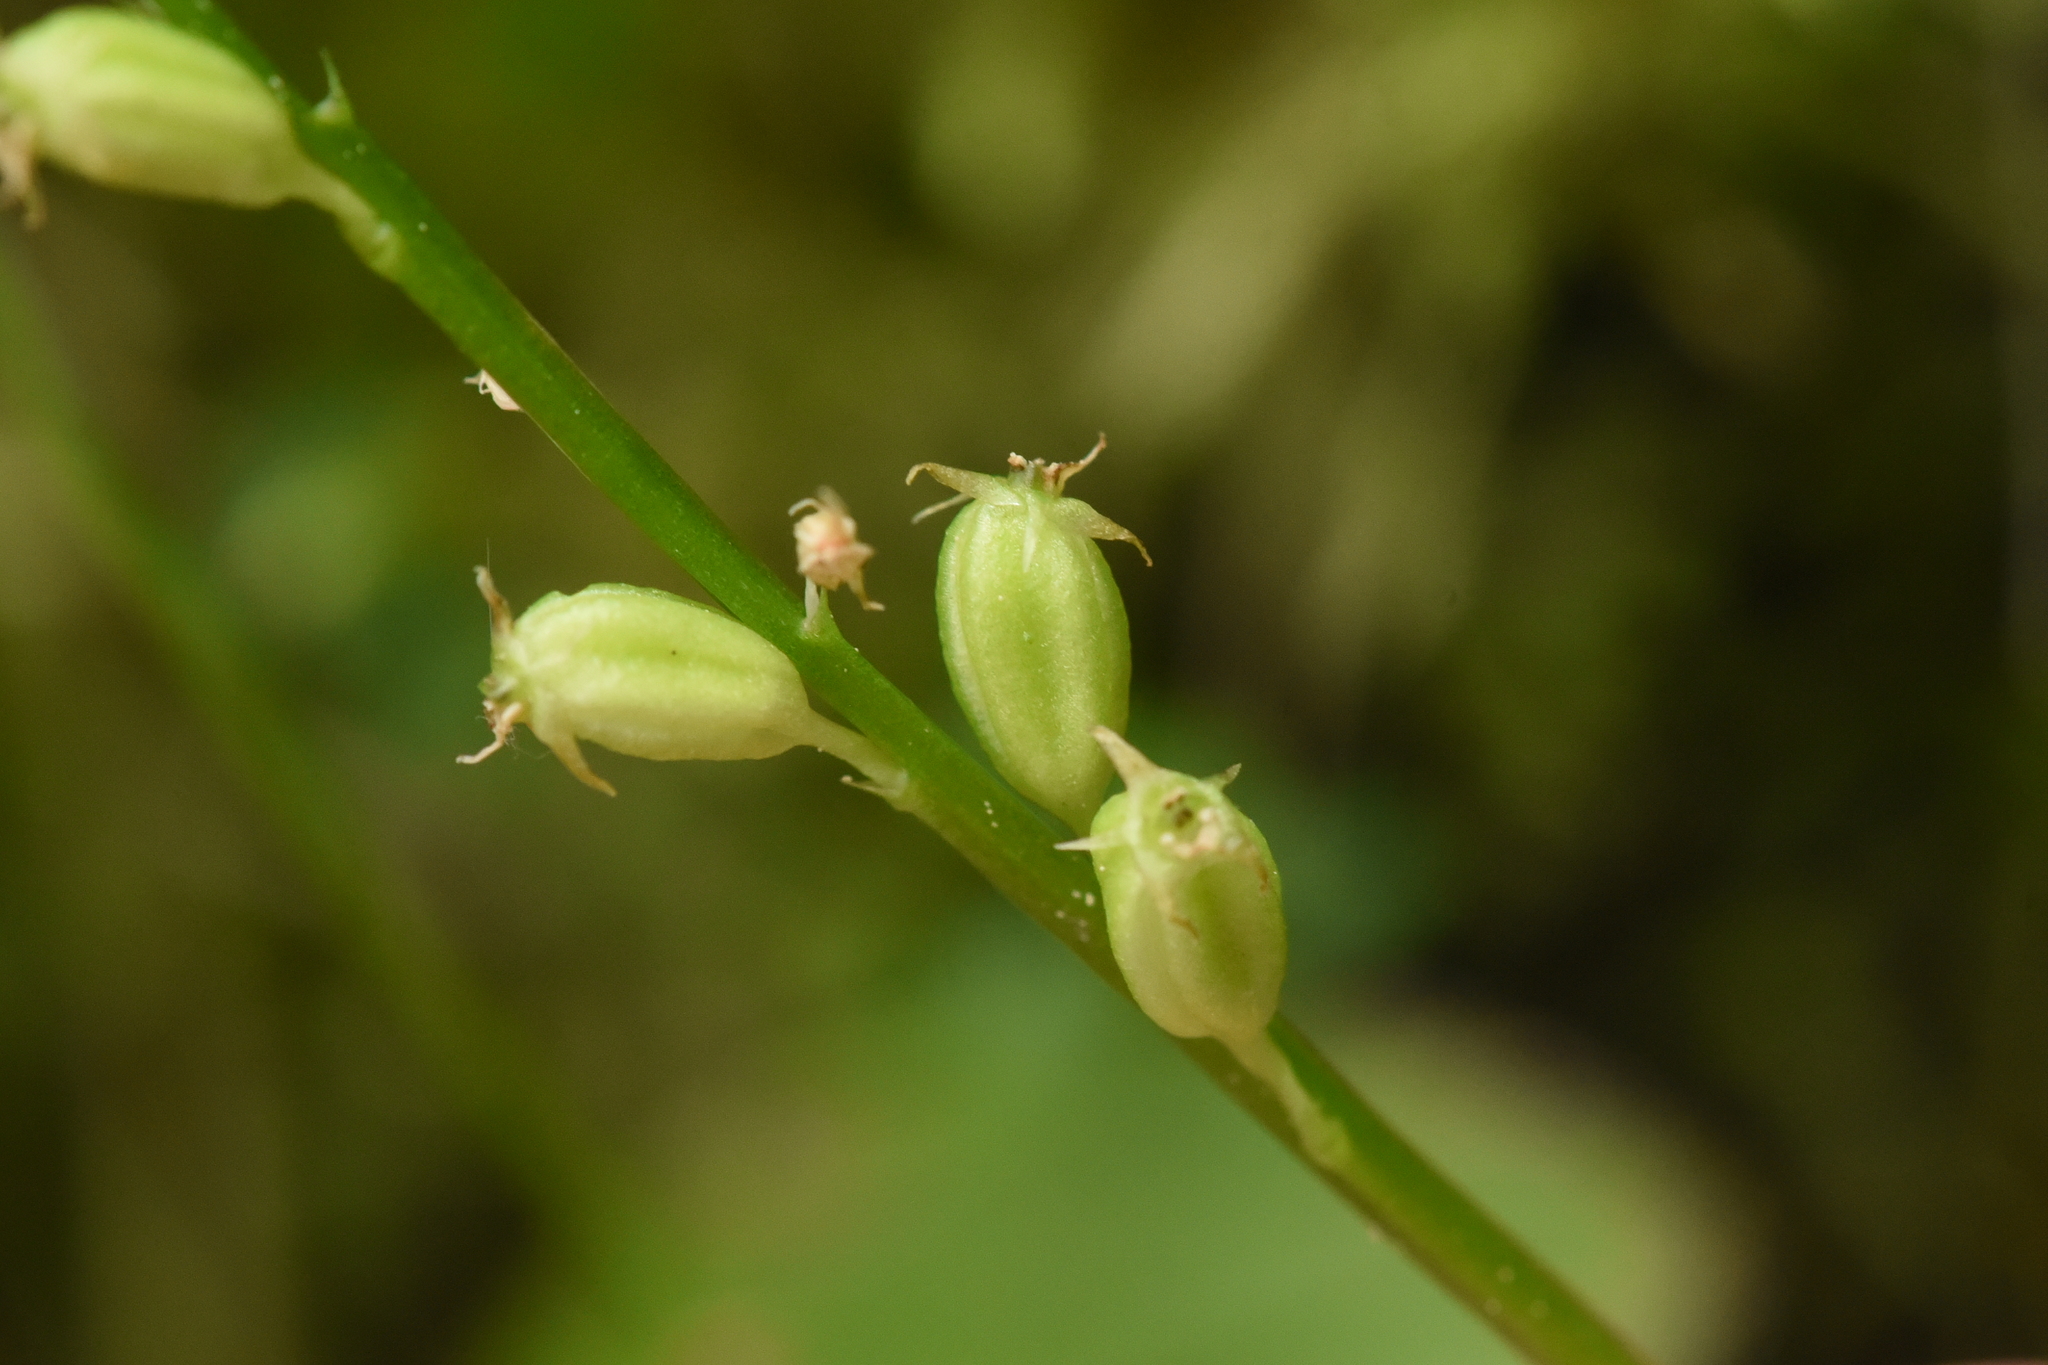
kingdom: Plantae
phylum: Tracheophyta
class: Liliopsida
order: Asparagales
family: Orchidaceae
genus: Malaxis
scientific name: Malaxis monophyllos
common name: White adder's-mouth
